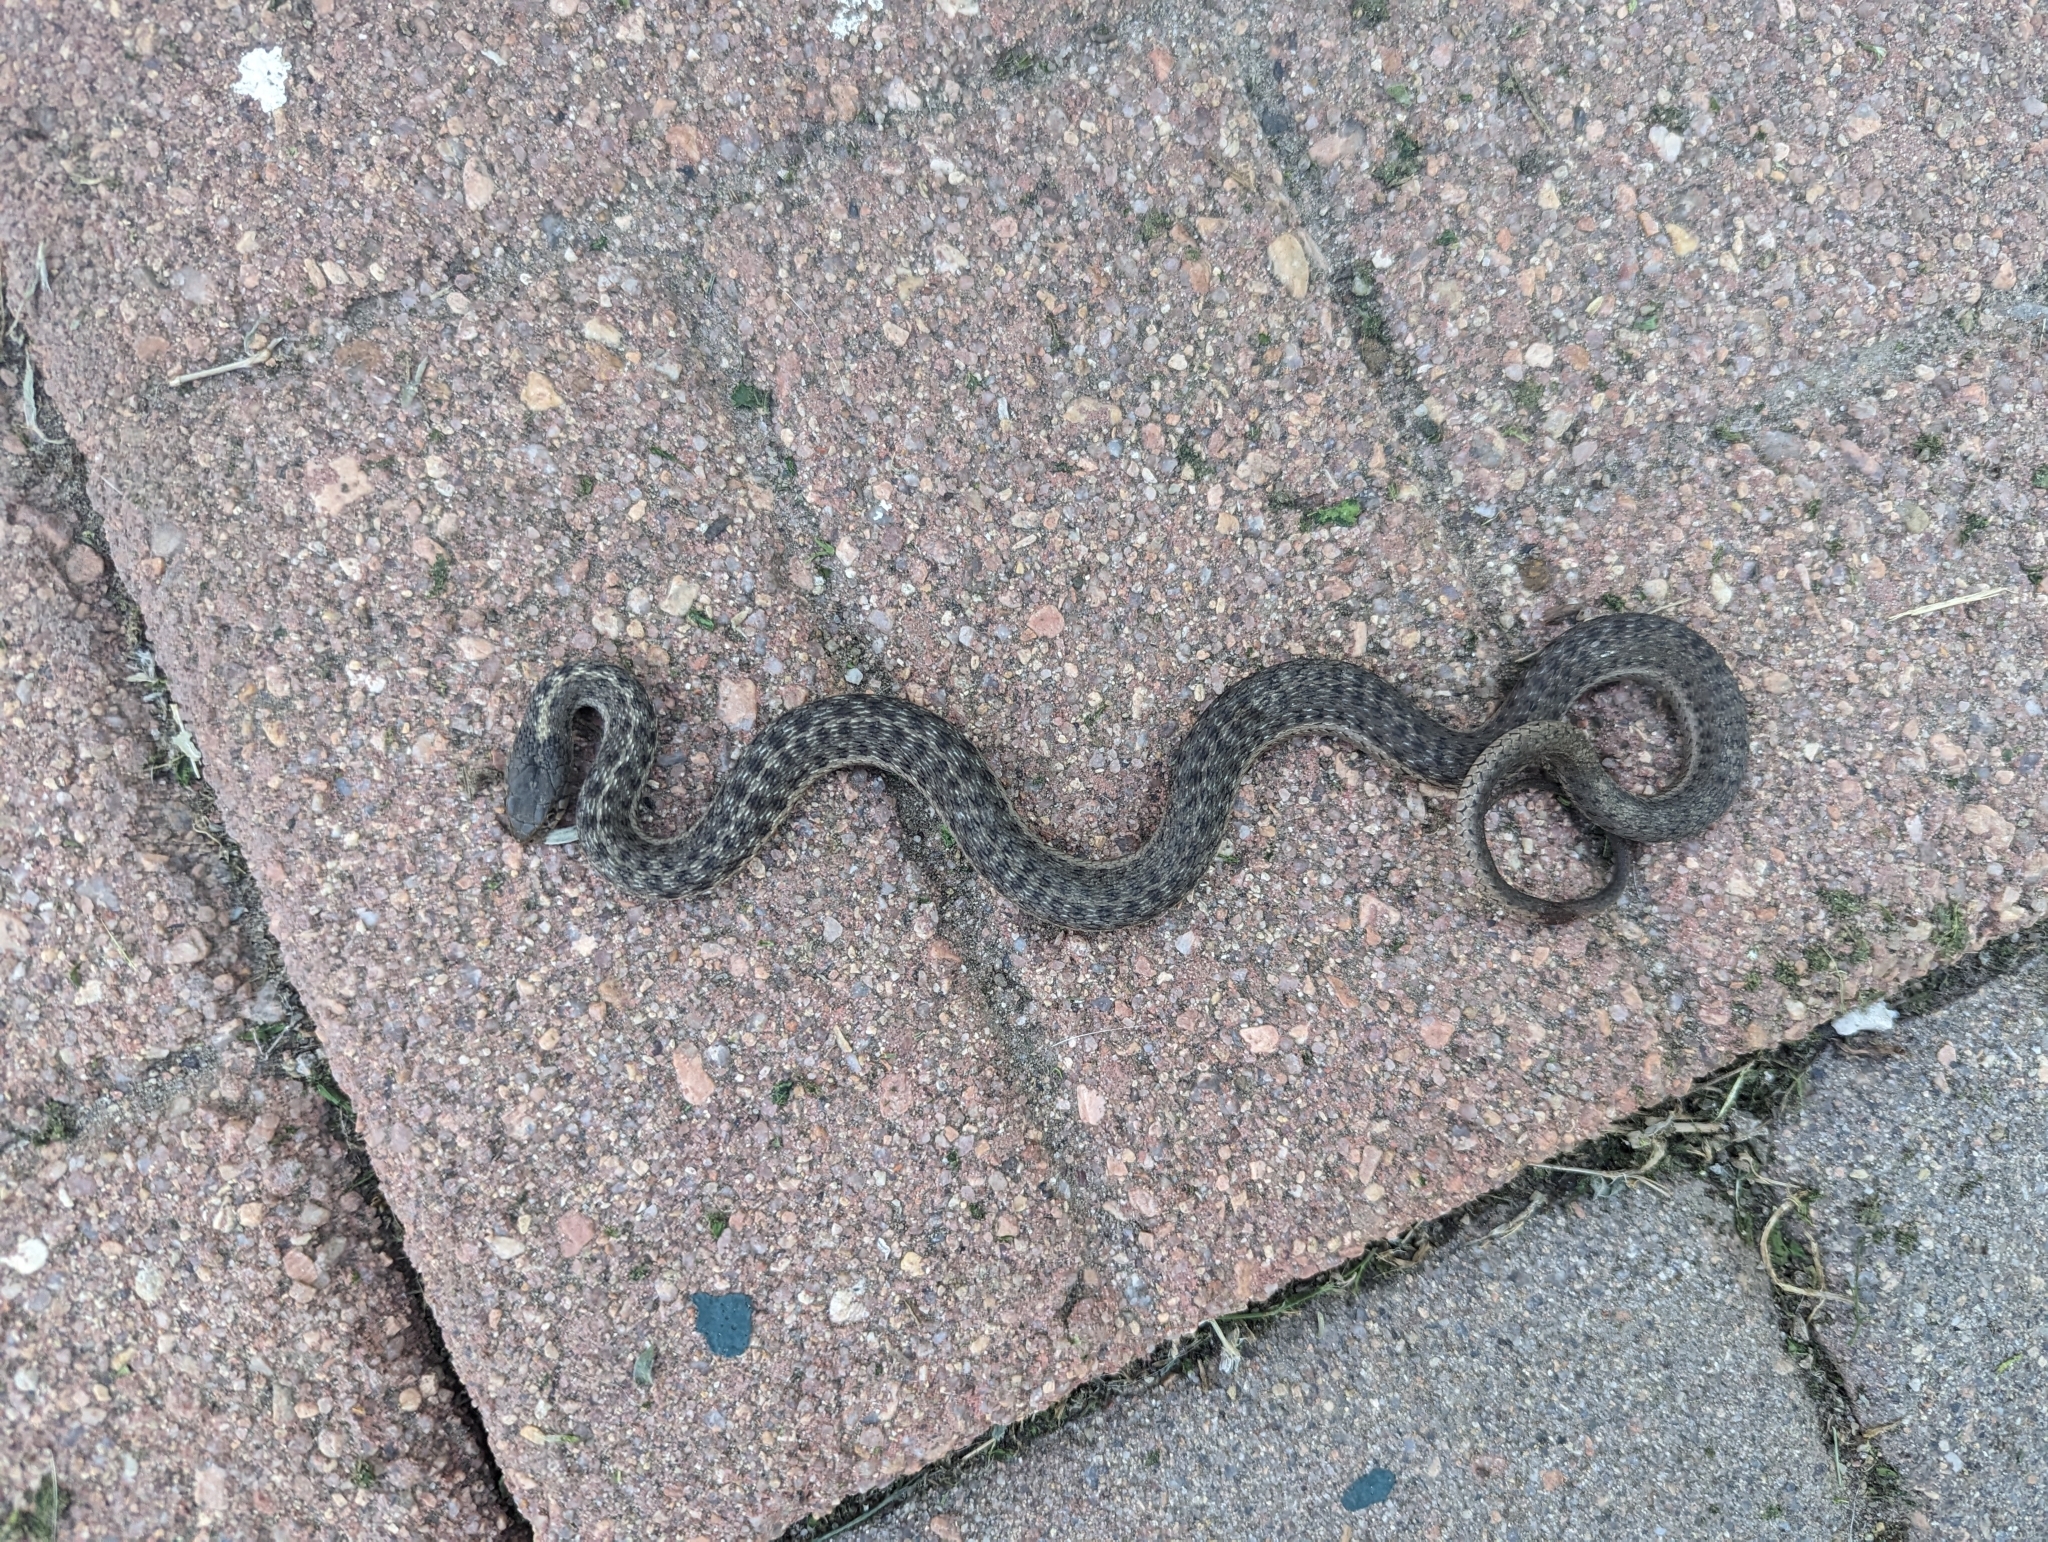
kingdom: Animalia
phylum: Chordata
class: Squamata
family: Colubridae
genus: Thamnophis
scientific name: Thamnophis elegans
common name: Western terrestrial garter snake
